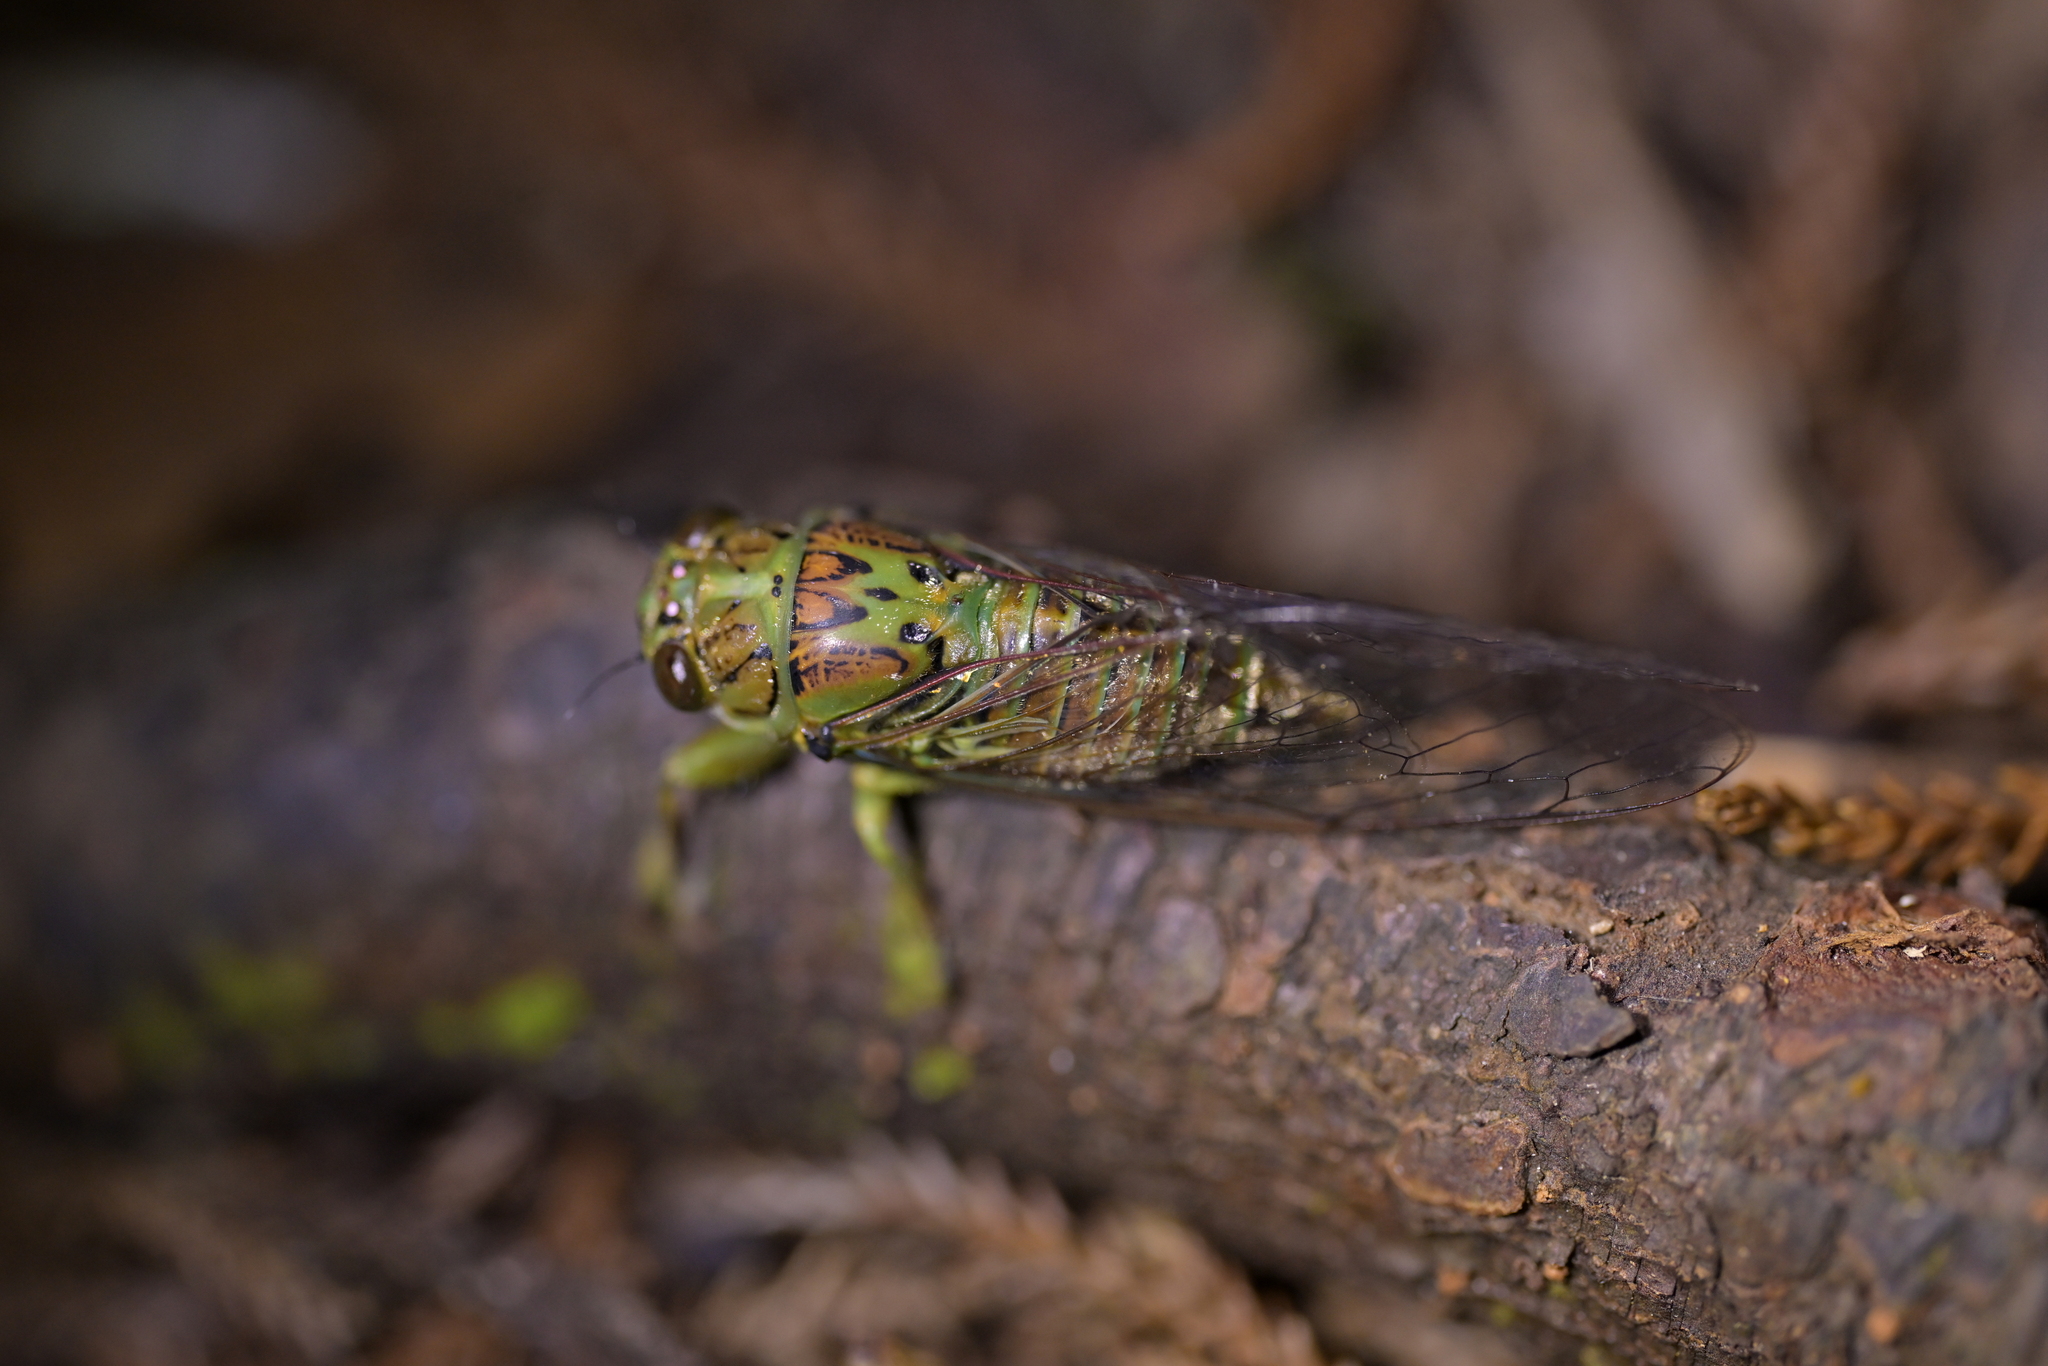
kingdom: Animalia
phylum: Arthropoda
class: Insecta
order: Hemiptera
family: Cicadidae
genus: Kikihia
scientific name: Kikihia scutellaris
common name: Lesser bronze cicada
